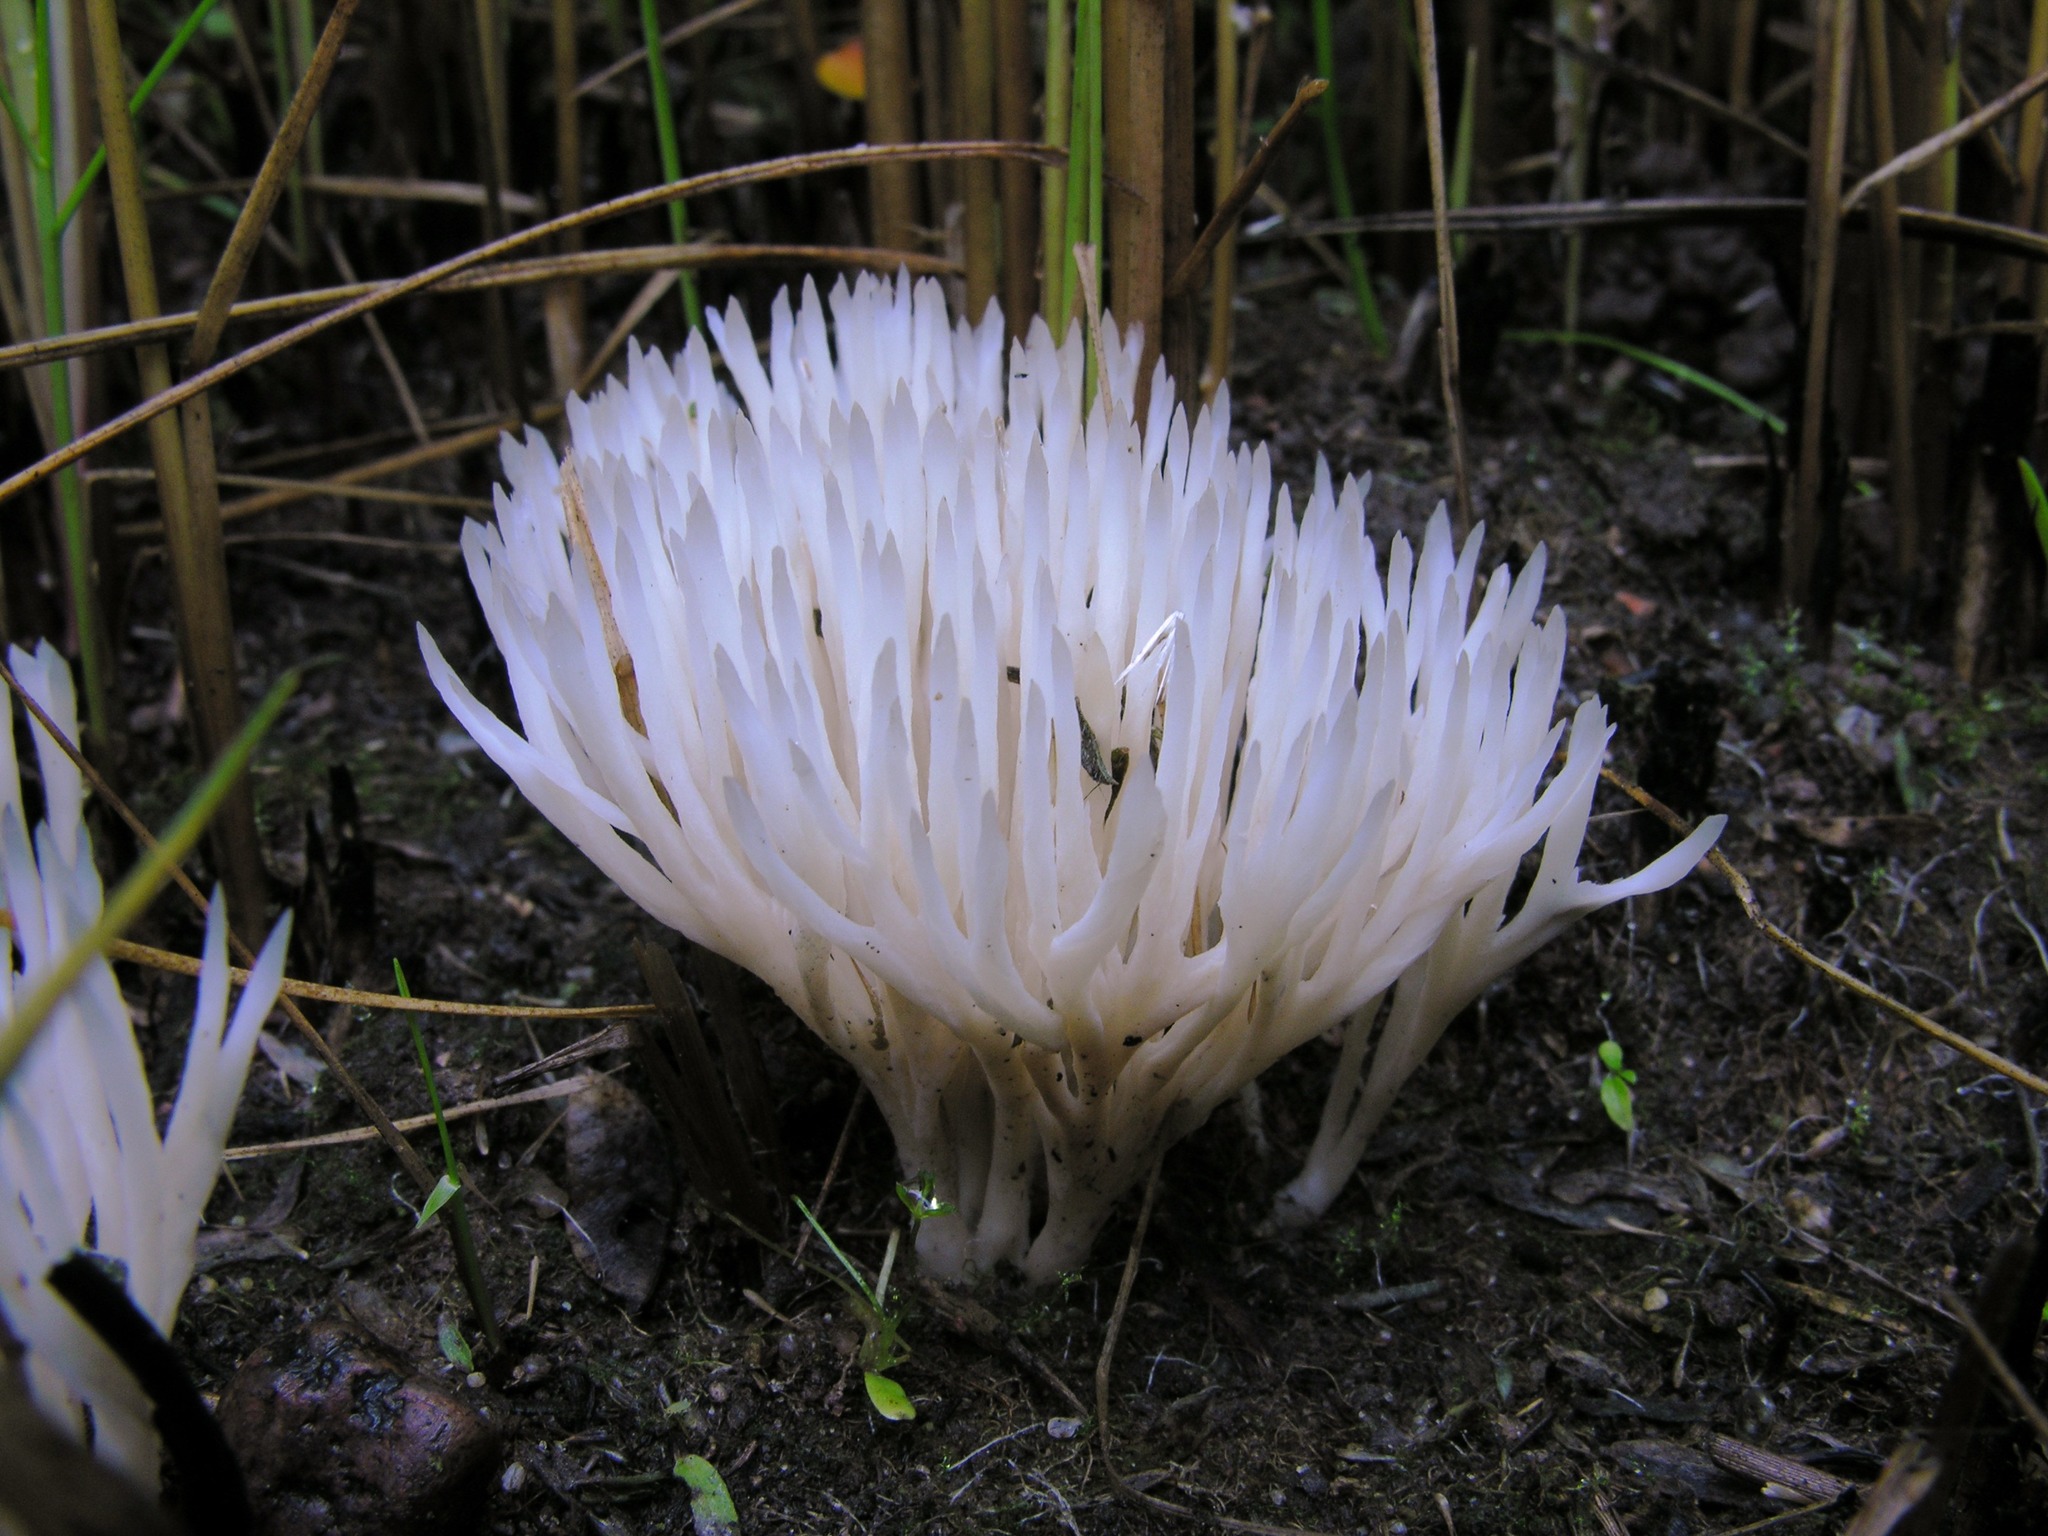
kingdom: Fungi
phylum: Basidiomycota
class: Agaricomycetes
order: Tremellodendropsidales
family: Tremellodendropsidaceae
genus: Tremellodendropsis
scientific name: Tremellodendropsis tuberosa
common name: Ashen coral
